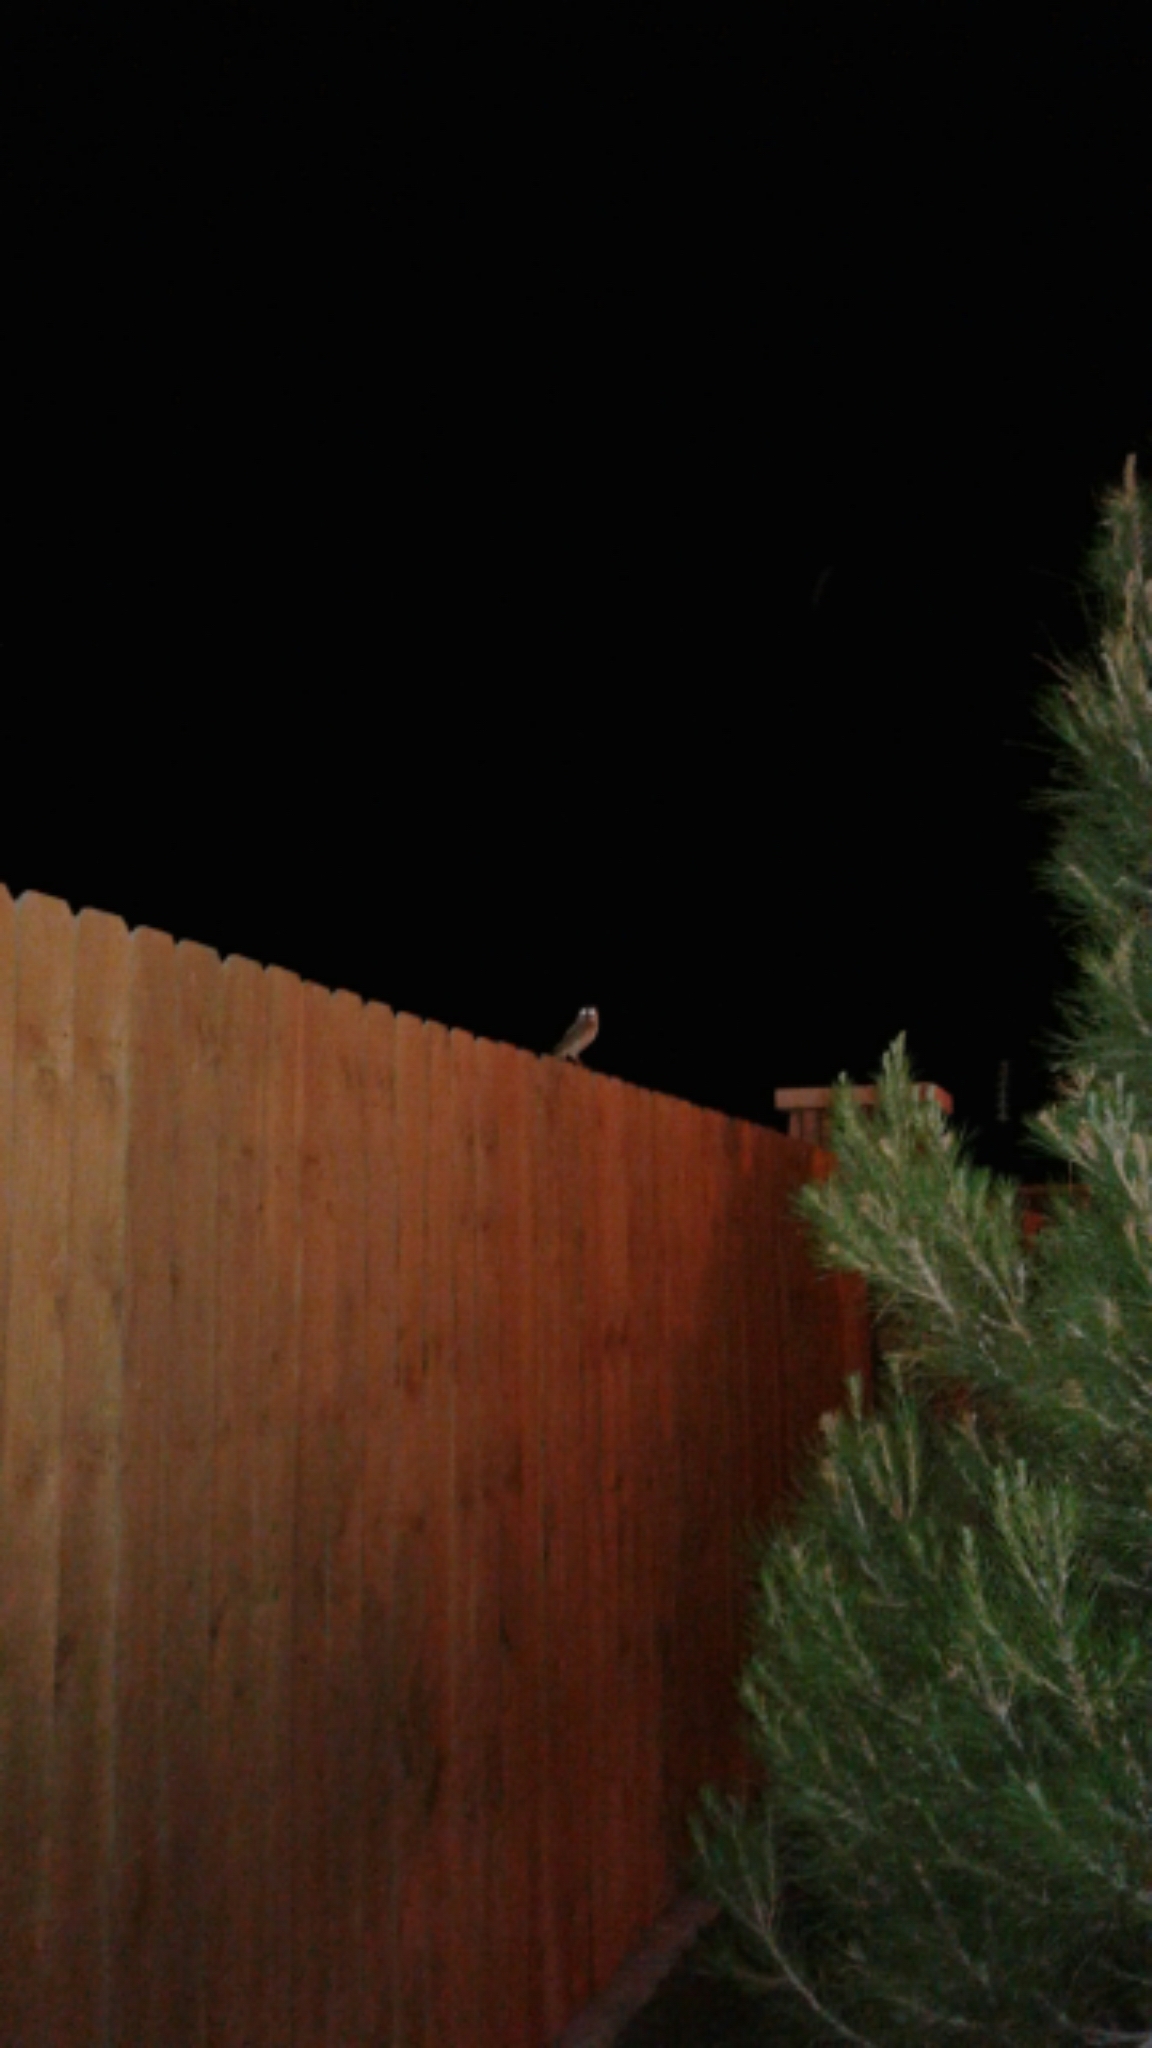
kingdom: Animalia
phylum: Chordata
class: Aves
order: Strigiformes
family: Tytonidae
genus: Tyto
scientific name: Tyto alba
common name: Barn owl
